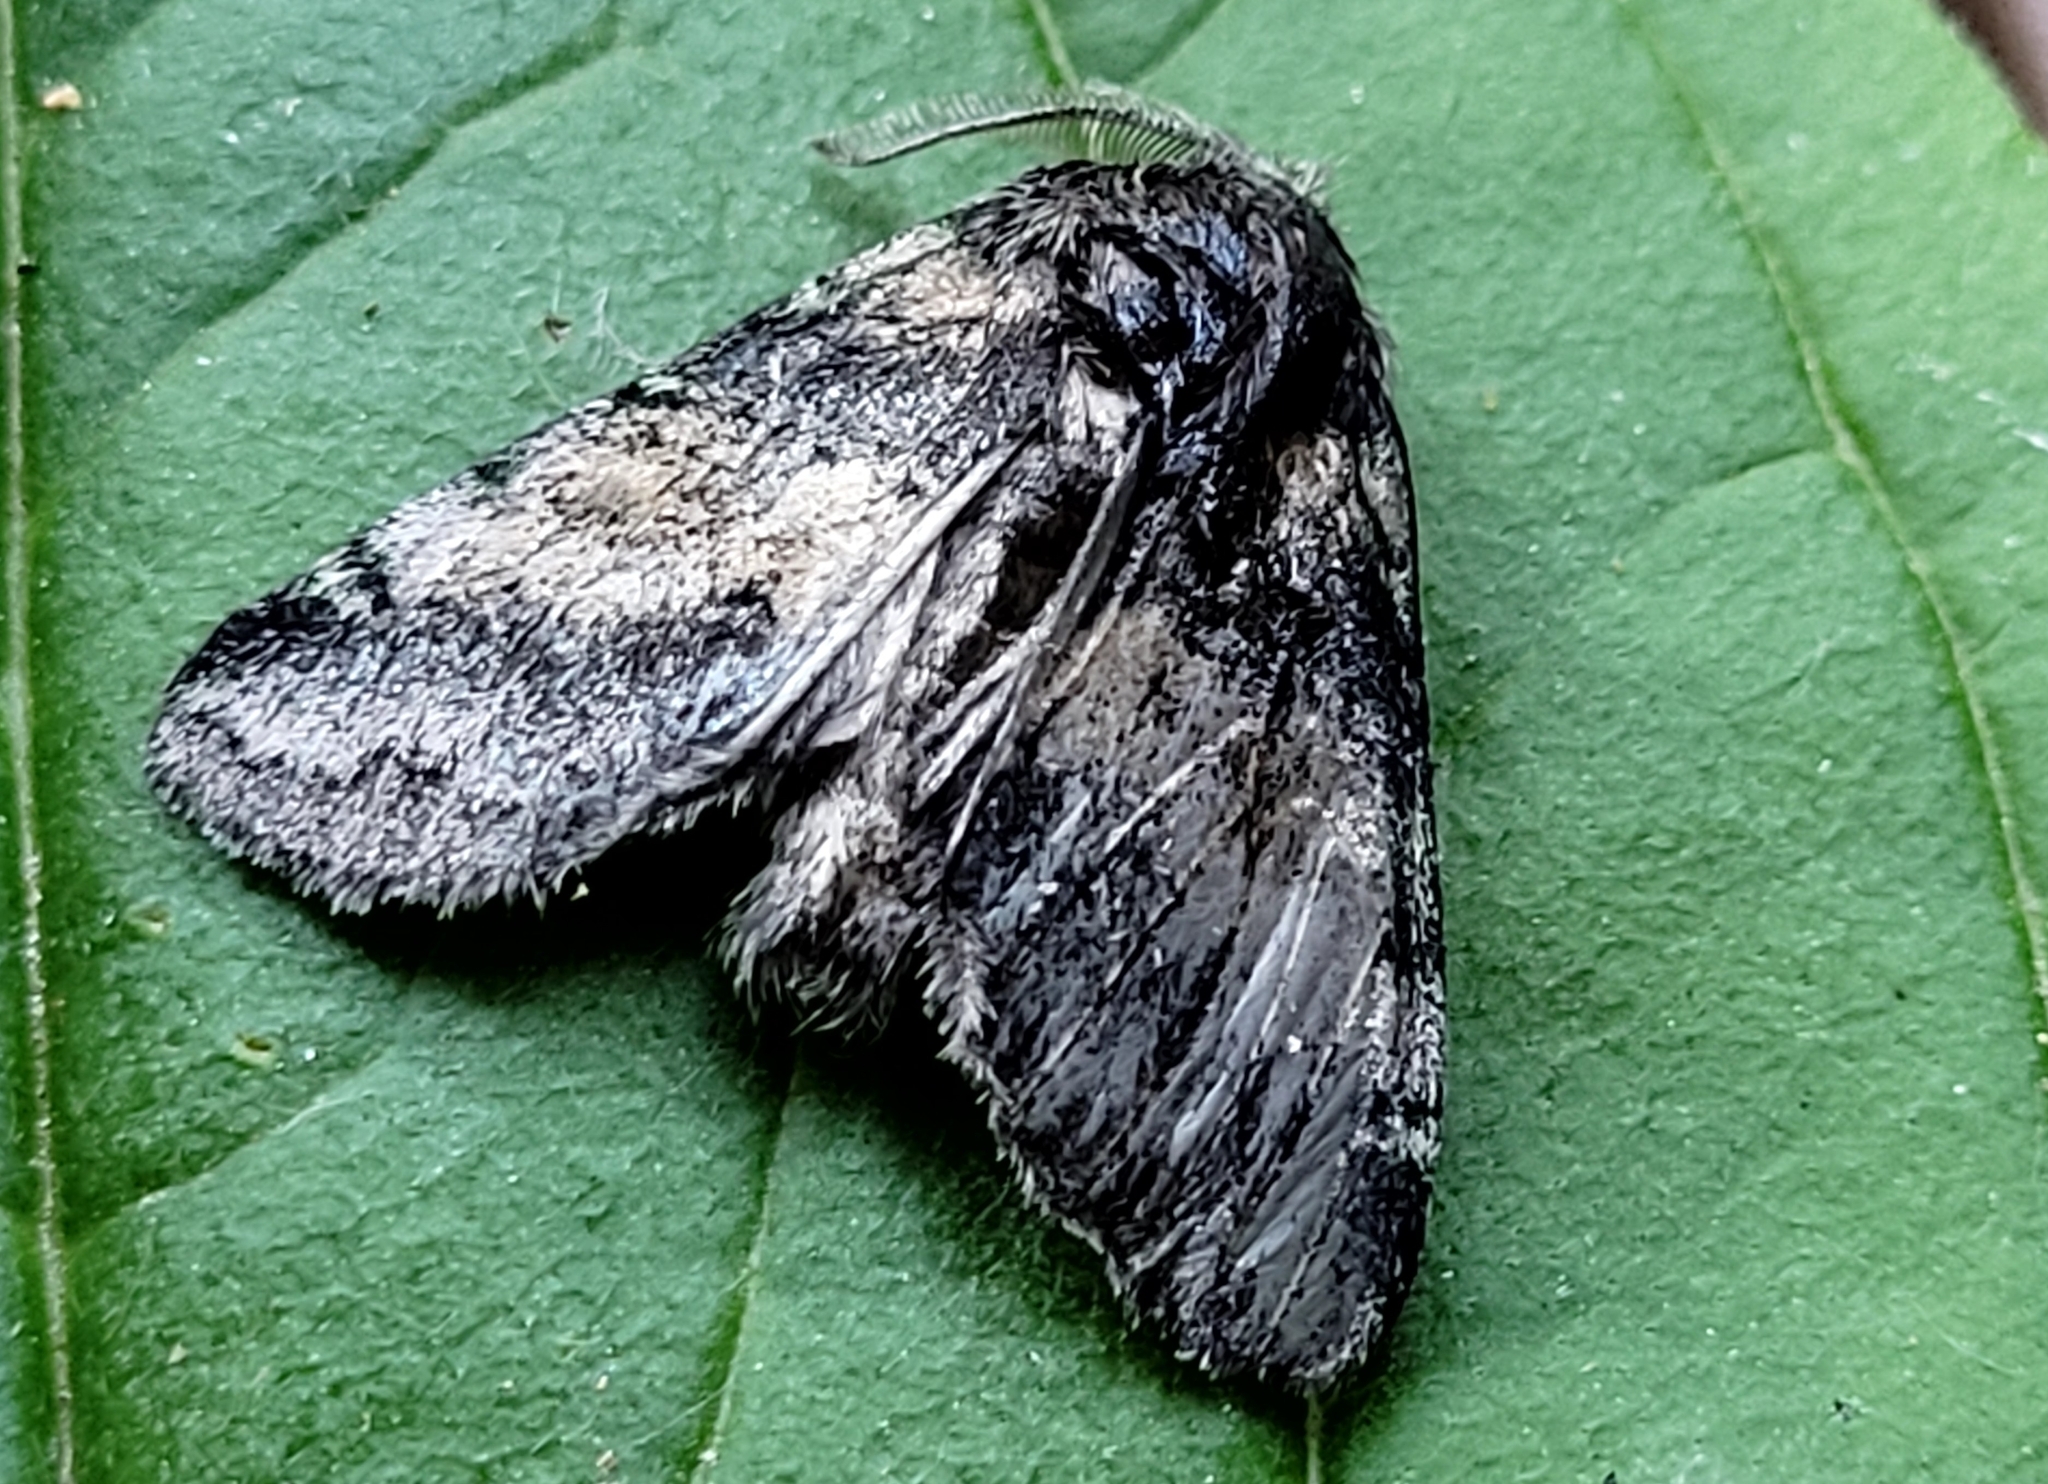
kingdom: Animalia
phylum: Arthropoda
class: Insecta
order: Lepidoptera
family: Notodontidae
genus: Gluphisia
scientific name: Gluphisia septentrionis
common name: Common gluphisia
